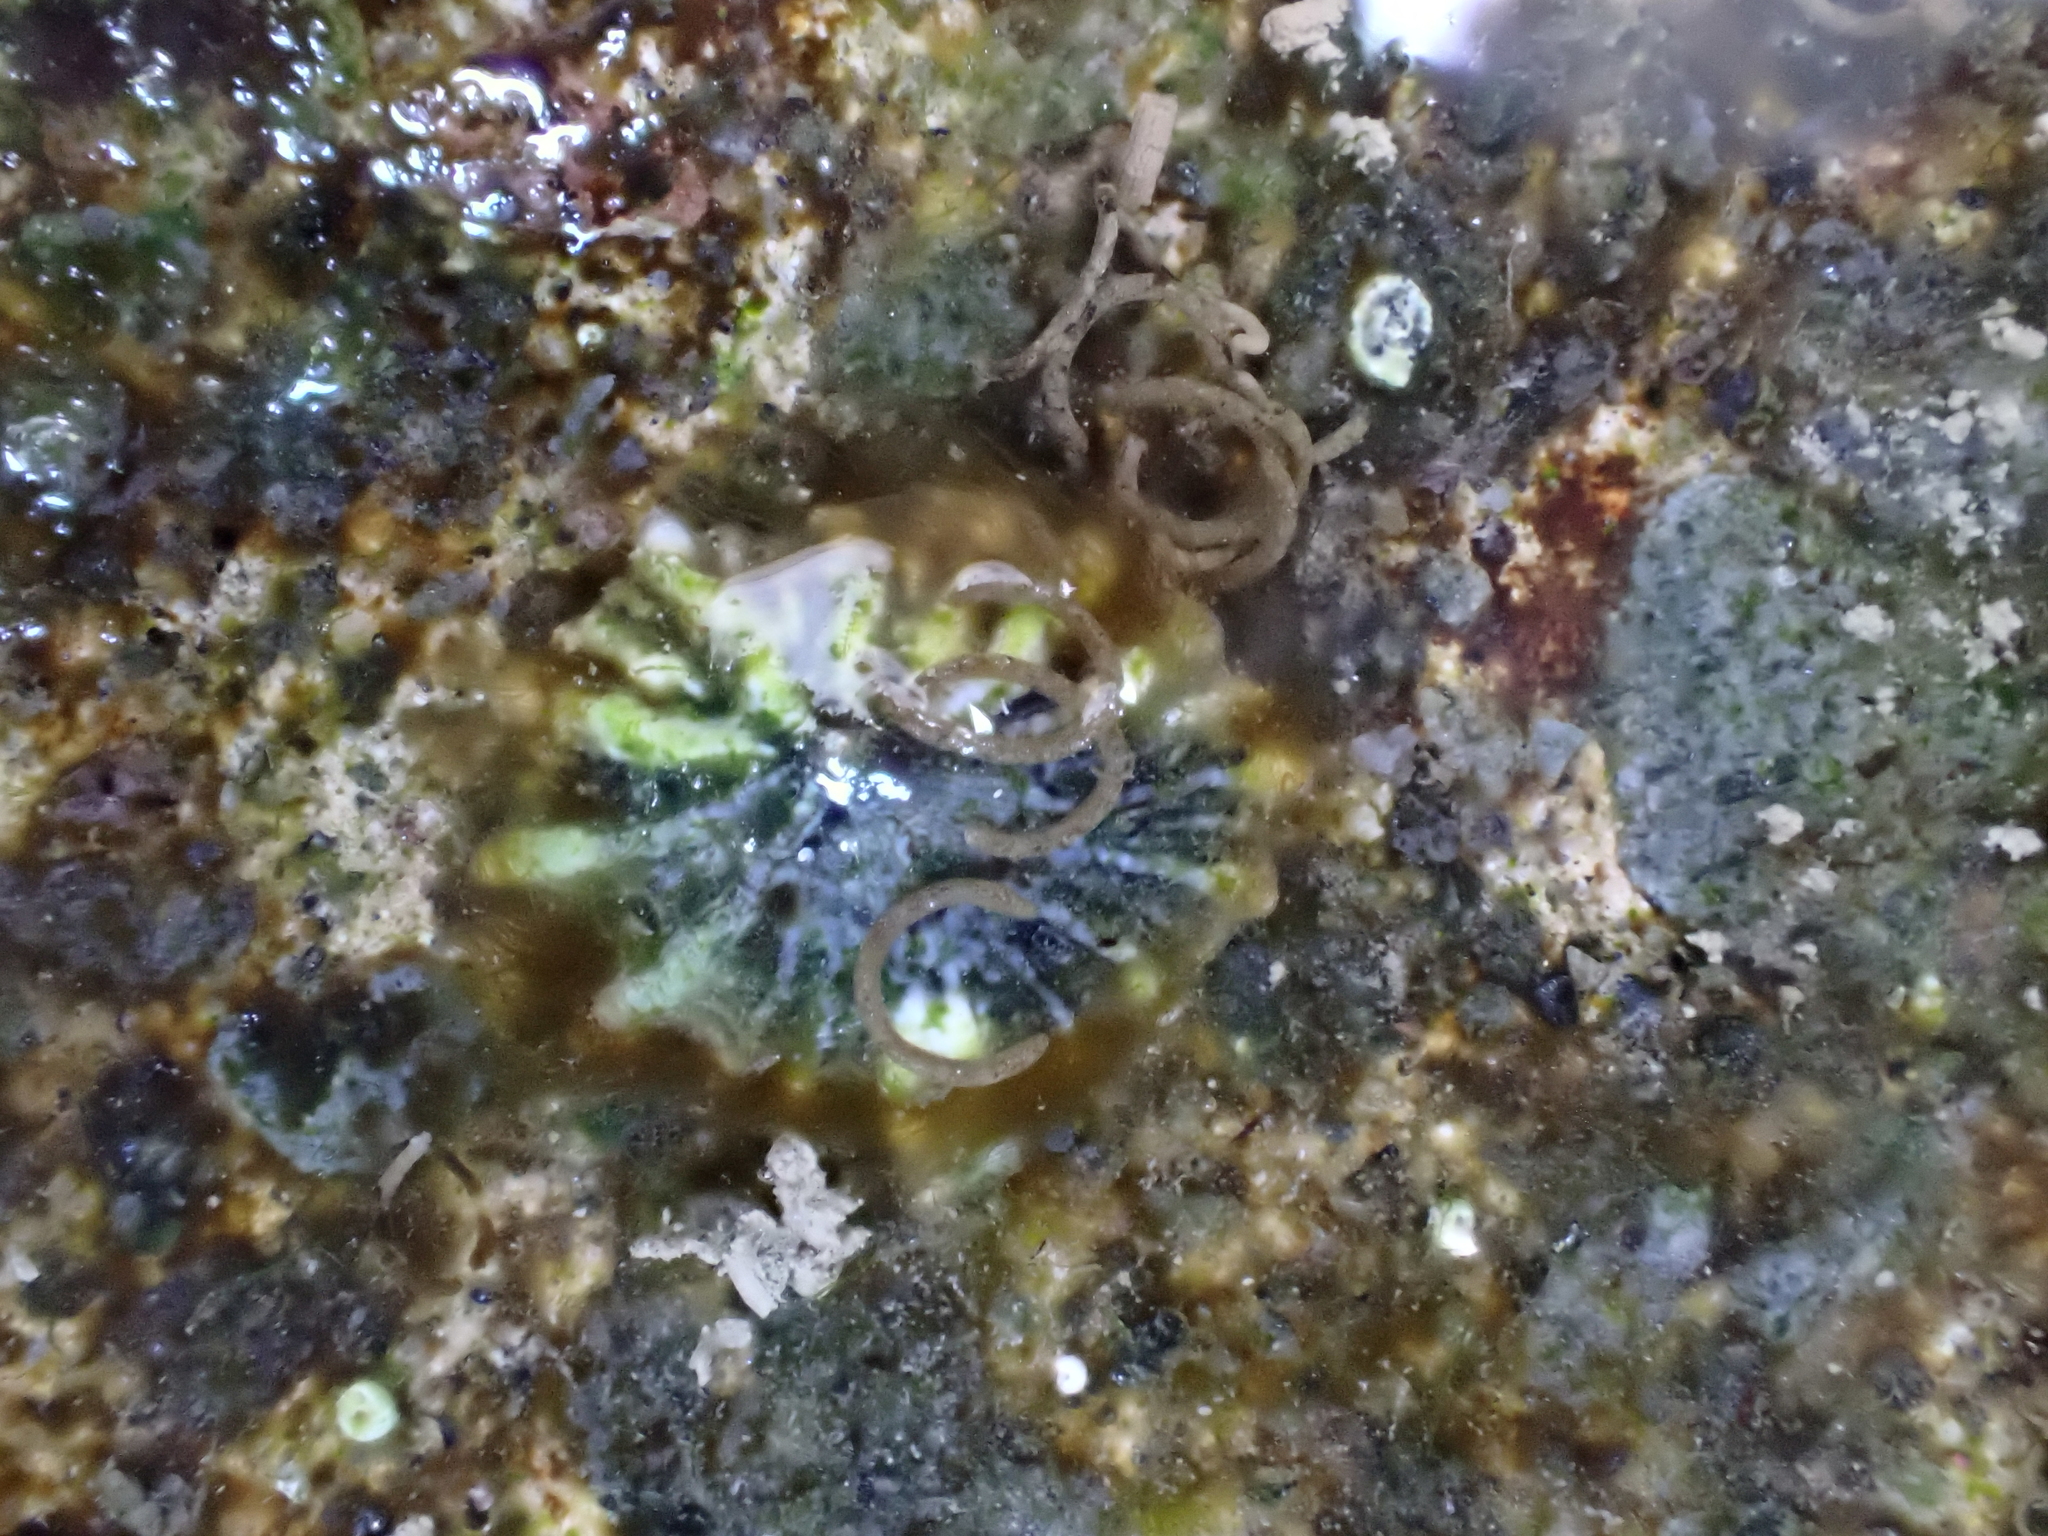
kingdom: Animalia
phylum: Mollusca
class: Gastropoda
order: Siphonariida
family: Siphonariidae
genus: Siphonaria
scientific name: Siphonaria australis
